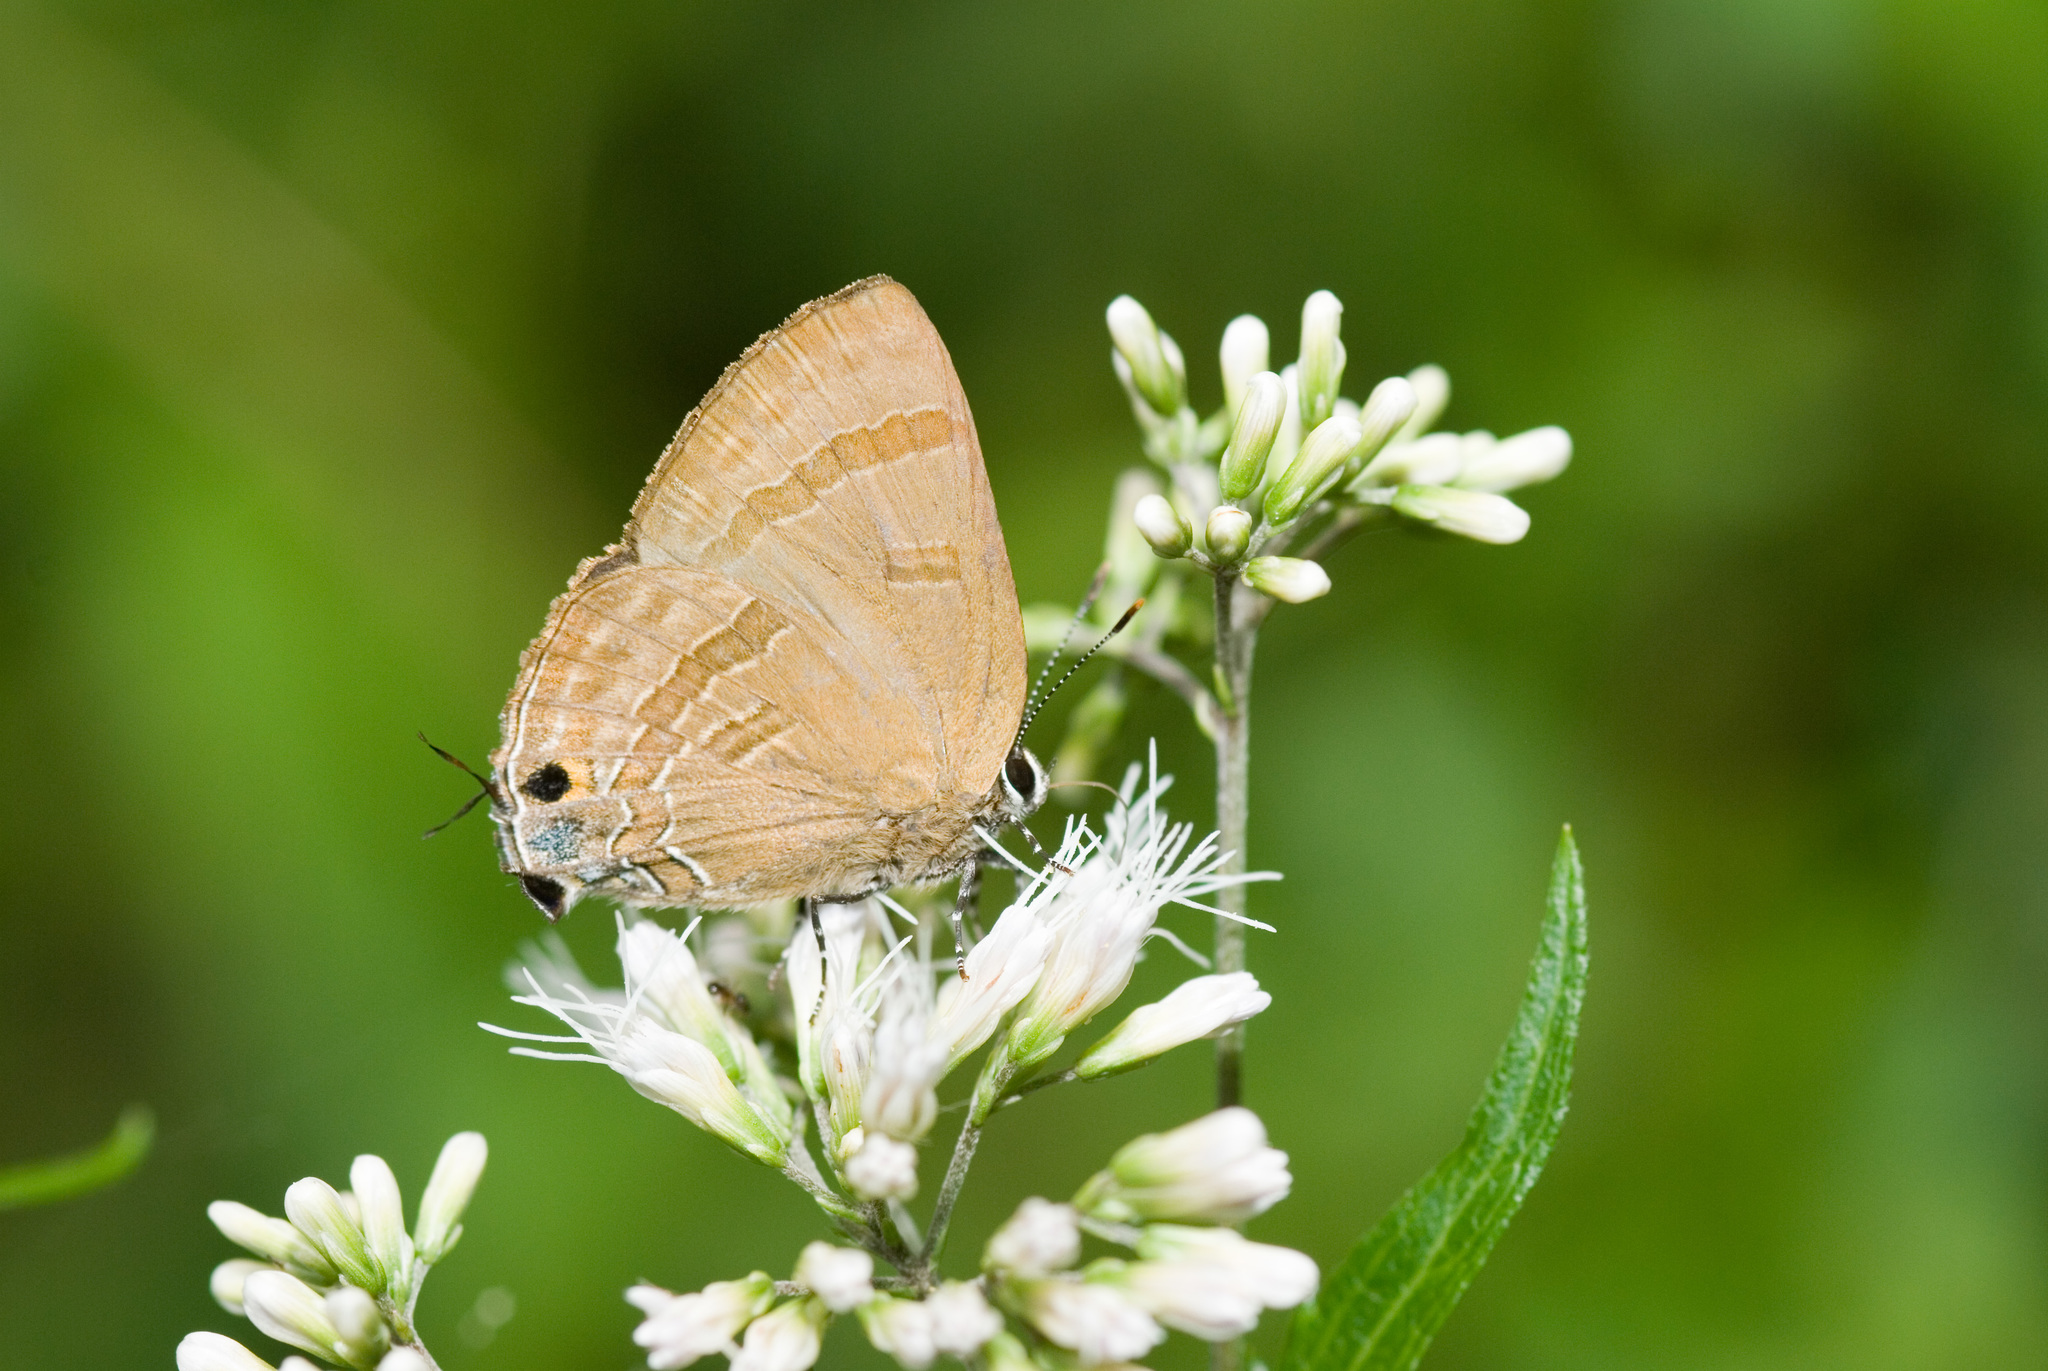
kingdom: Animalia
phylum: Arthropoda
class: Insecta
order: Lepidoptera
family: Lycaenidae
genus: Rapala
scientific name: Rapala varuna
